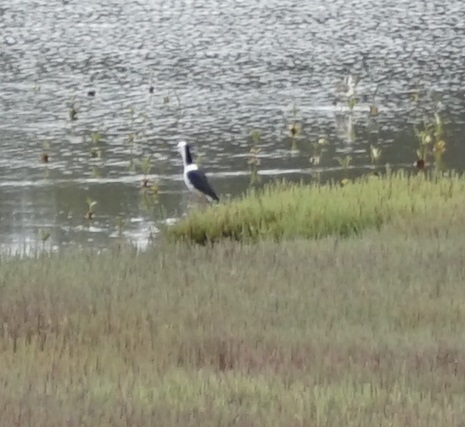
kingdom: Animalia
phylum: Chordata
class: Aves
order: Charadriiformes
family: Recurvirostridae
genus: Himantopus
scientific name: Himantopus leucocephalus
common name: White-headed stilt
